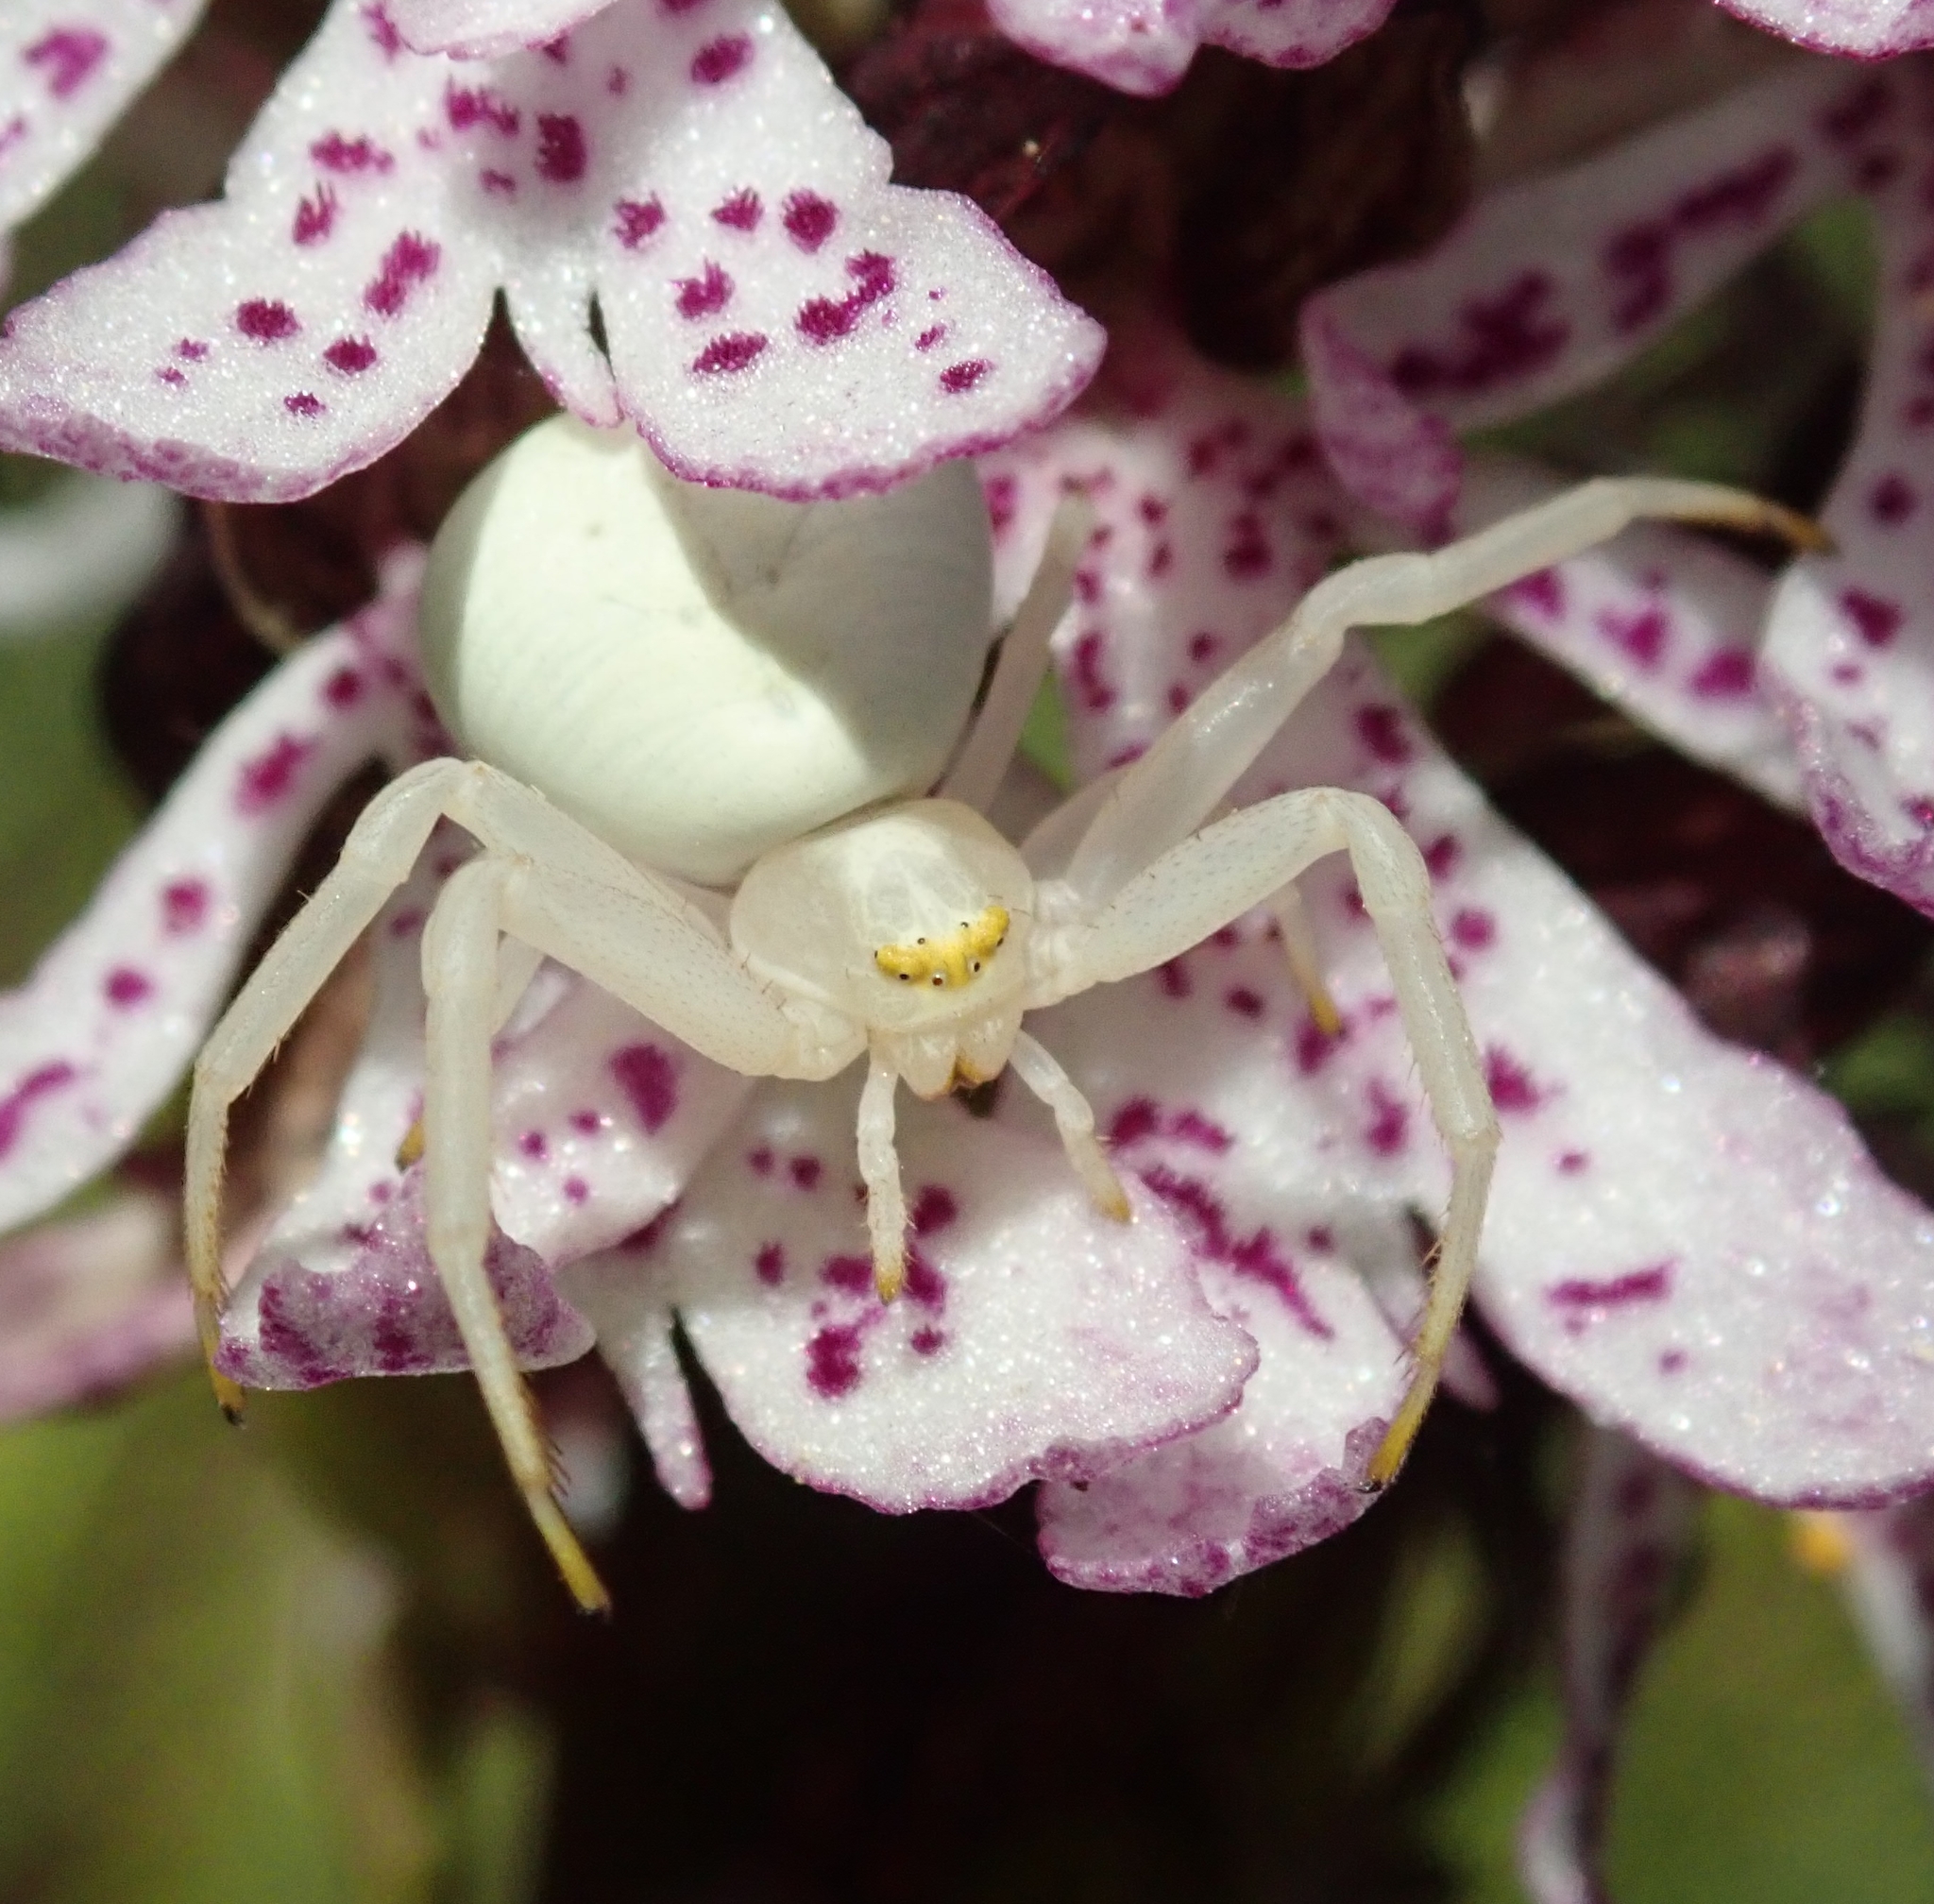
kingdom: Animalia
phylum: Arthropoda
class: Arachnida
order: Araneae
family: Thomisidae
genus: Misumena
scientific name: Misumena vatia
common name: Goldenrod crab spider
